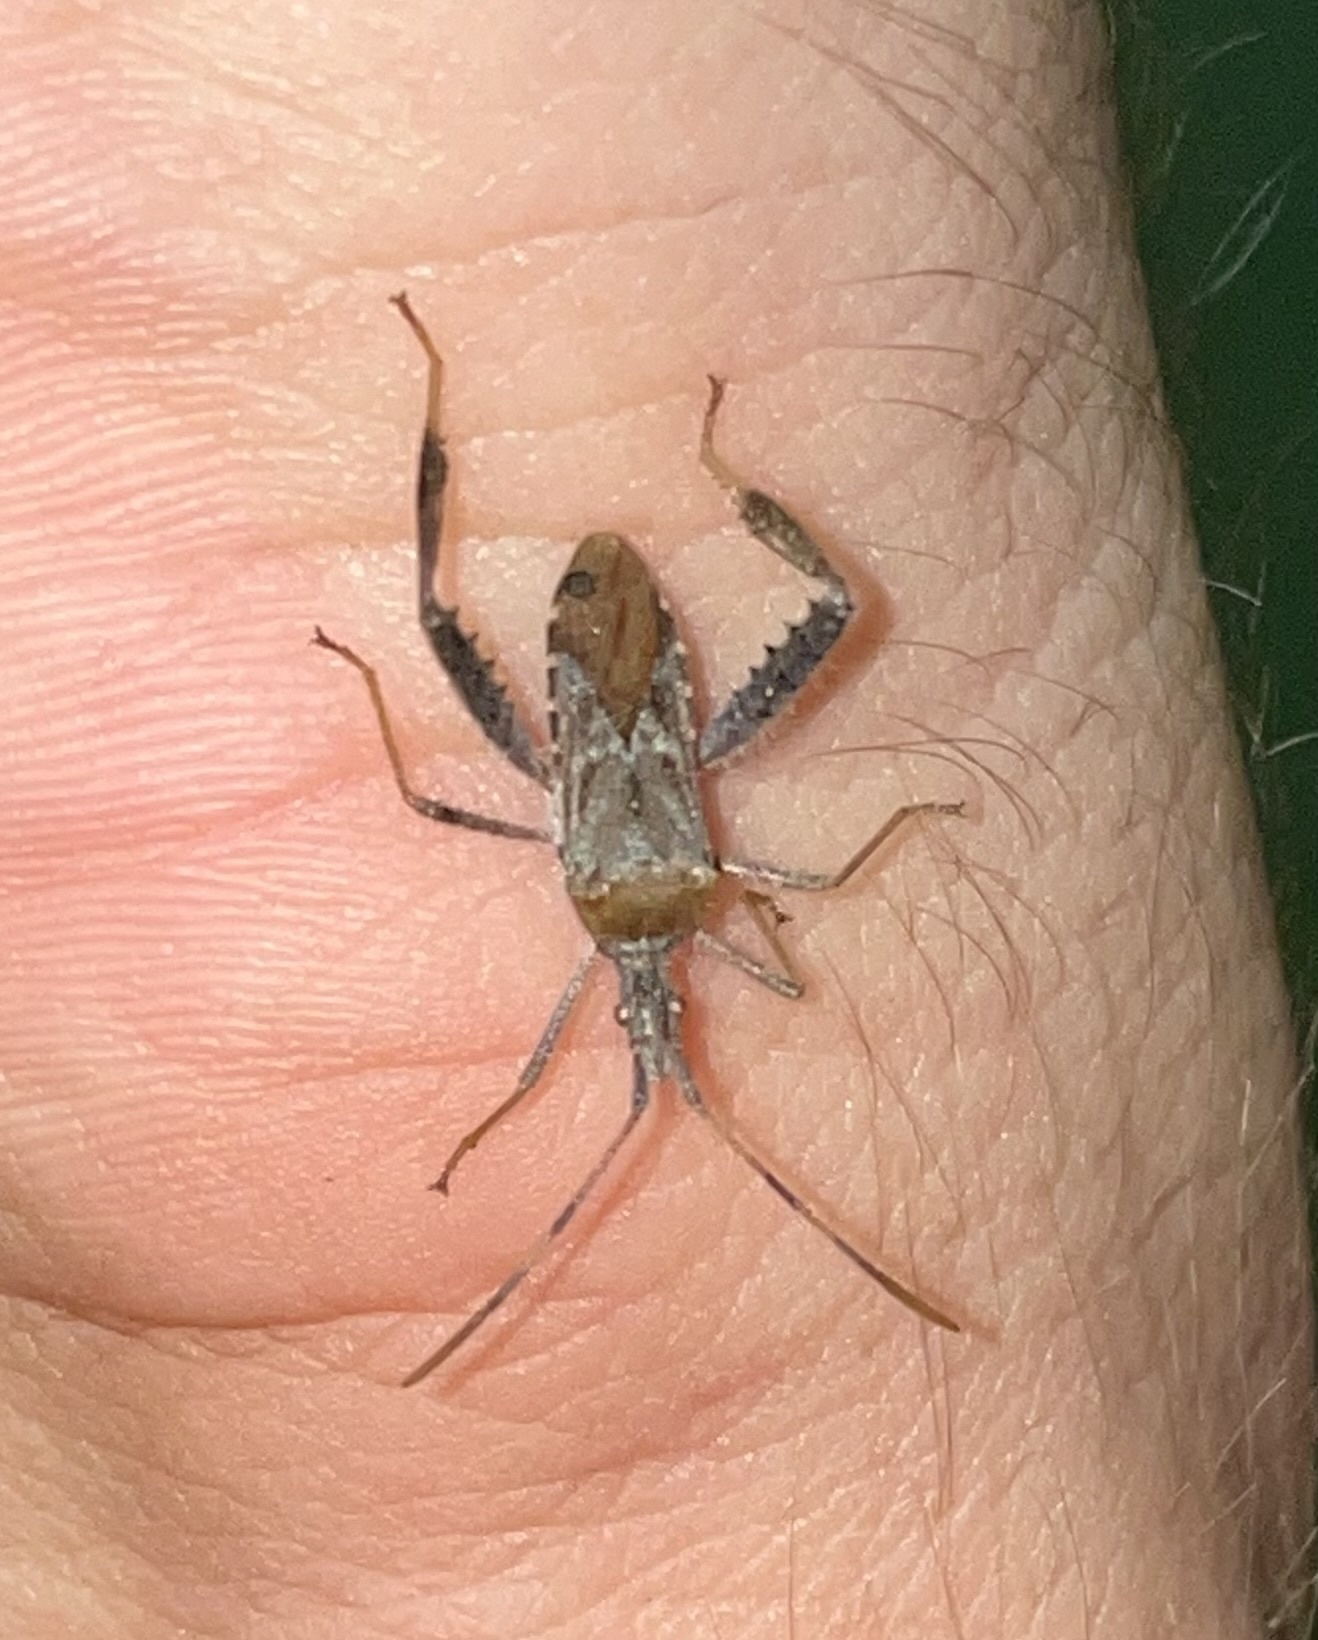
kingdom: Animalia
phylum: Arthropoda
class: Insecta
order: Hemiptera
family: Coreidae
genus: Narnia
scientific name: Narnia femorata
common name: Leaf-footed cactus bug
